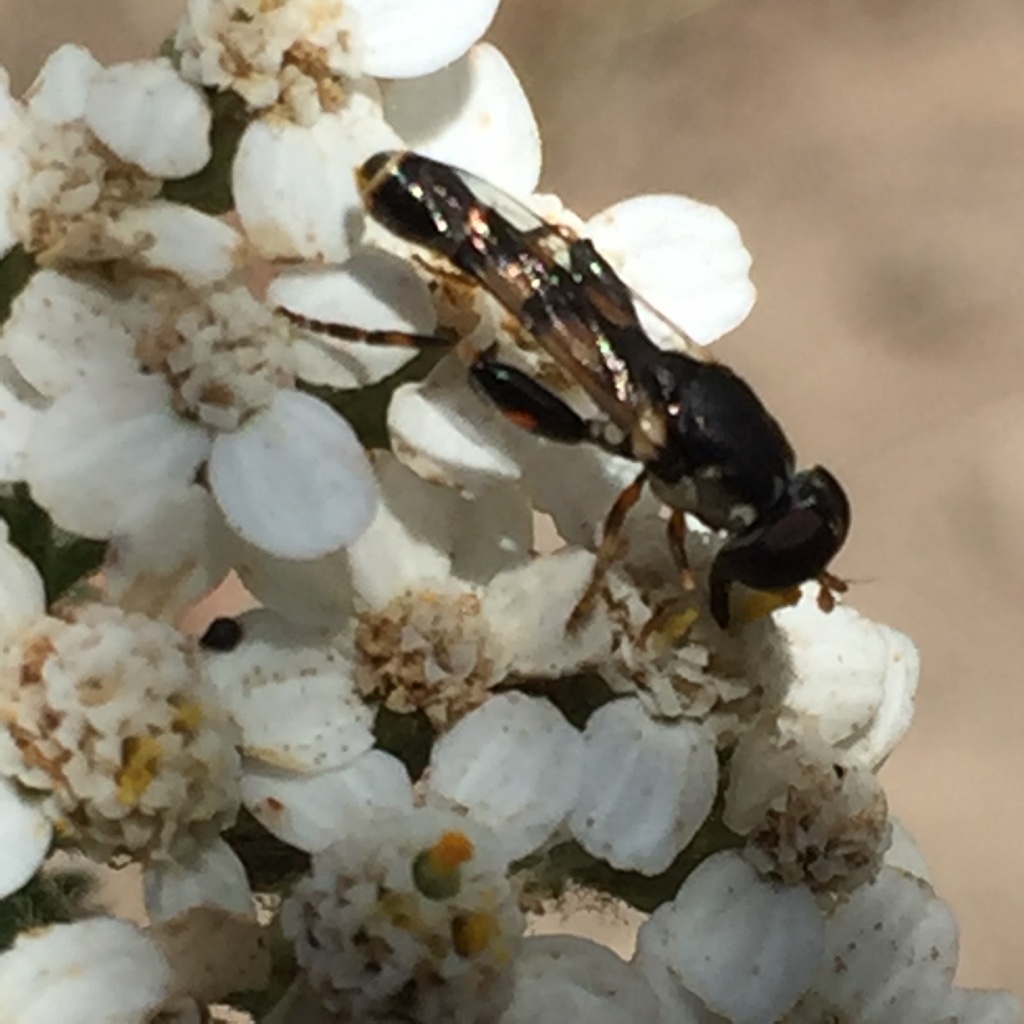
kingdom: Animalia
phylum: Arthropoda
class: Insecta
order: Diptera
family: Syrphidae
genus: Syritta
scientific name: Syritta pipiens
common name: Hover fly
